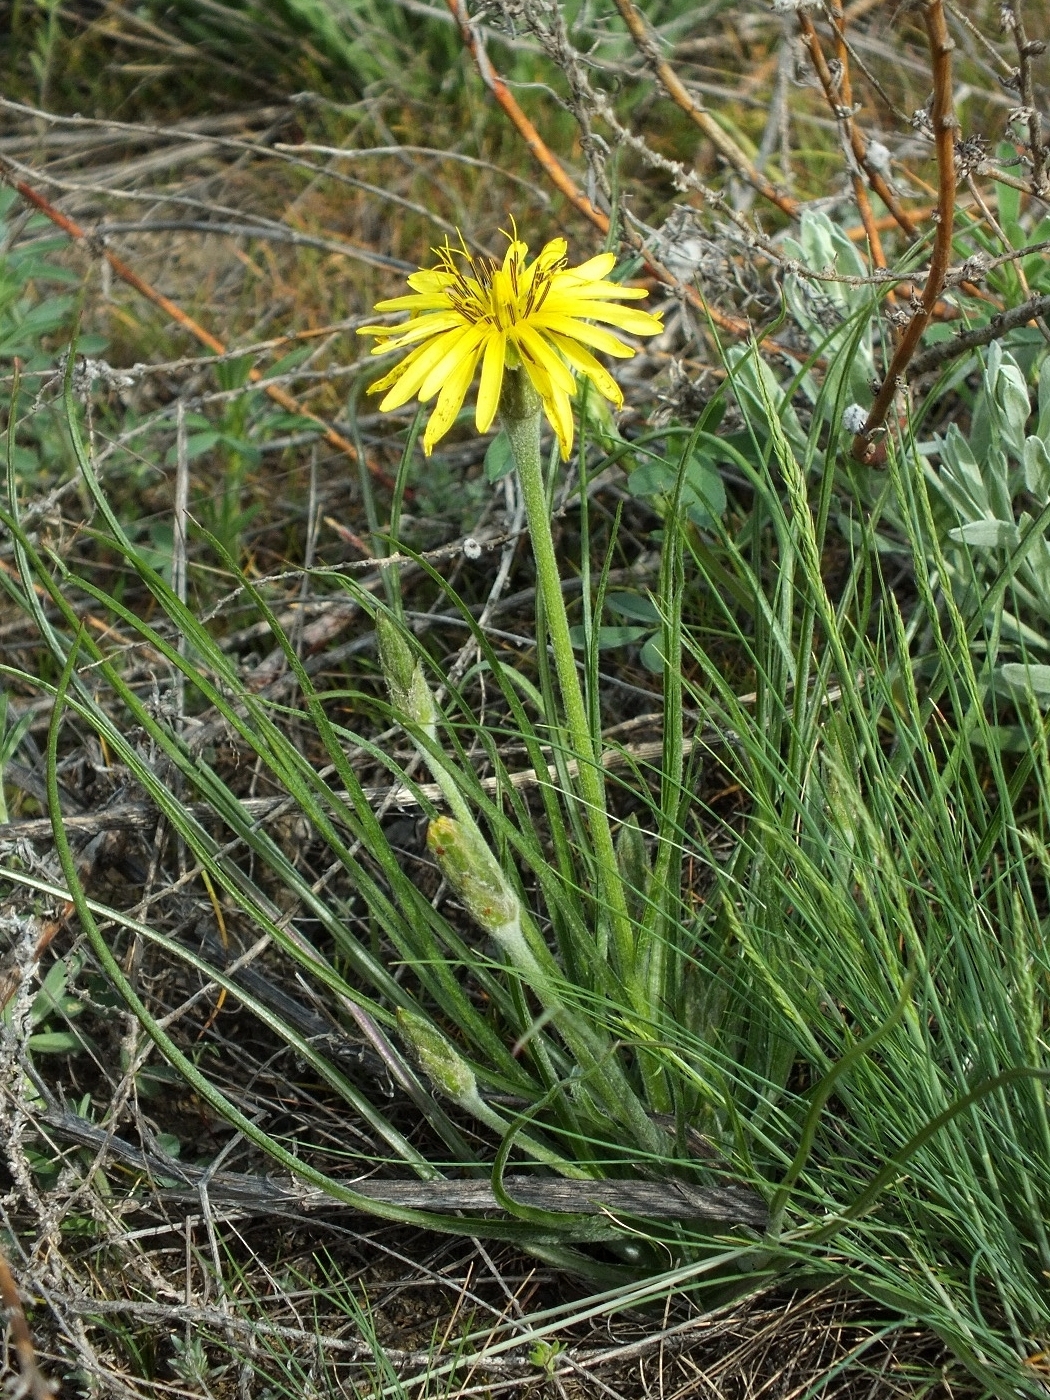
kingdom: Plantae
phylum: Tracheophyta
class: Magnoliopsida
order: Asterales
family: Asteraceae
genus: Candollea
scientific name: Candollea mollis
